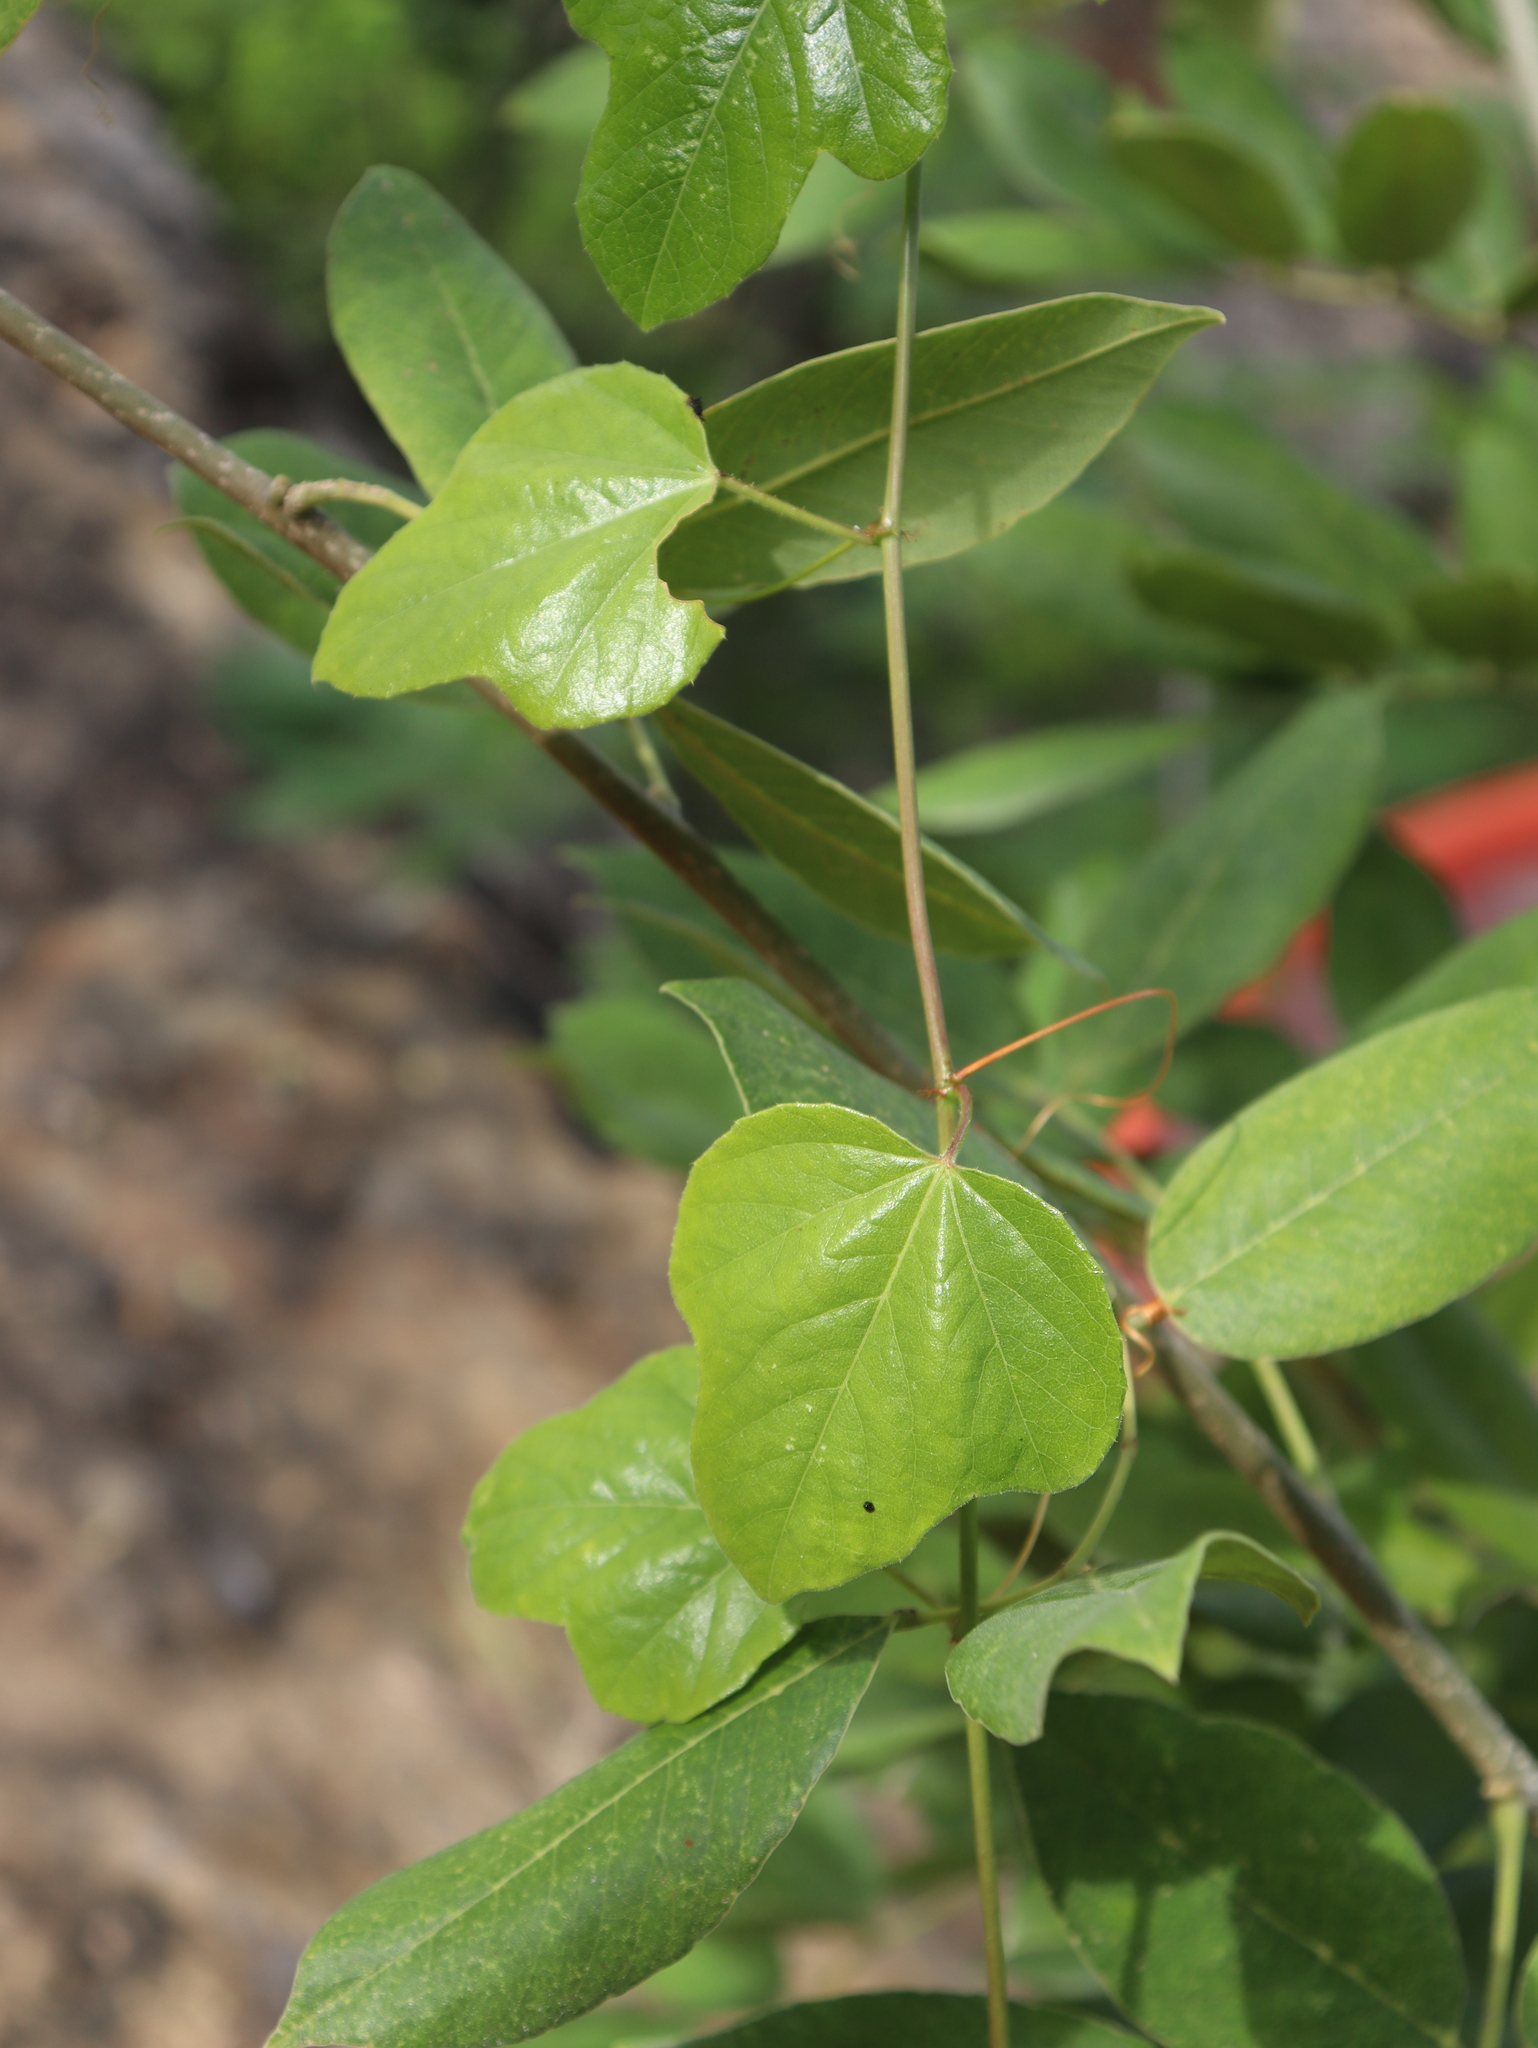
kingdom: Plantae
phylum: Tracheophyta
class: Magnoliopsida
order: Malpighiales
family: Passifloraceae
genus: Passiflora
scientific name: Passiflora ciliata
